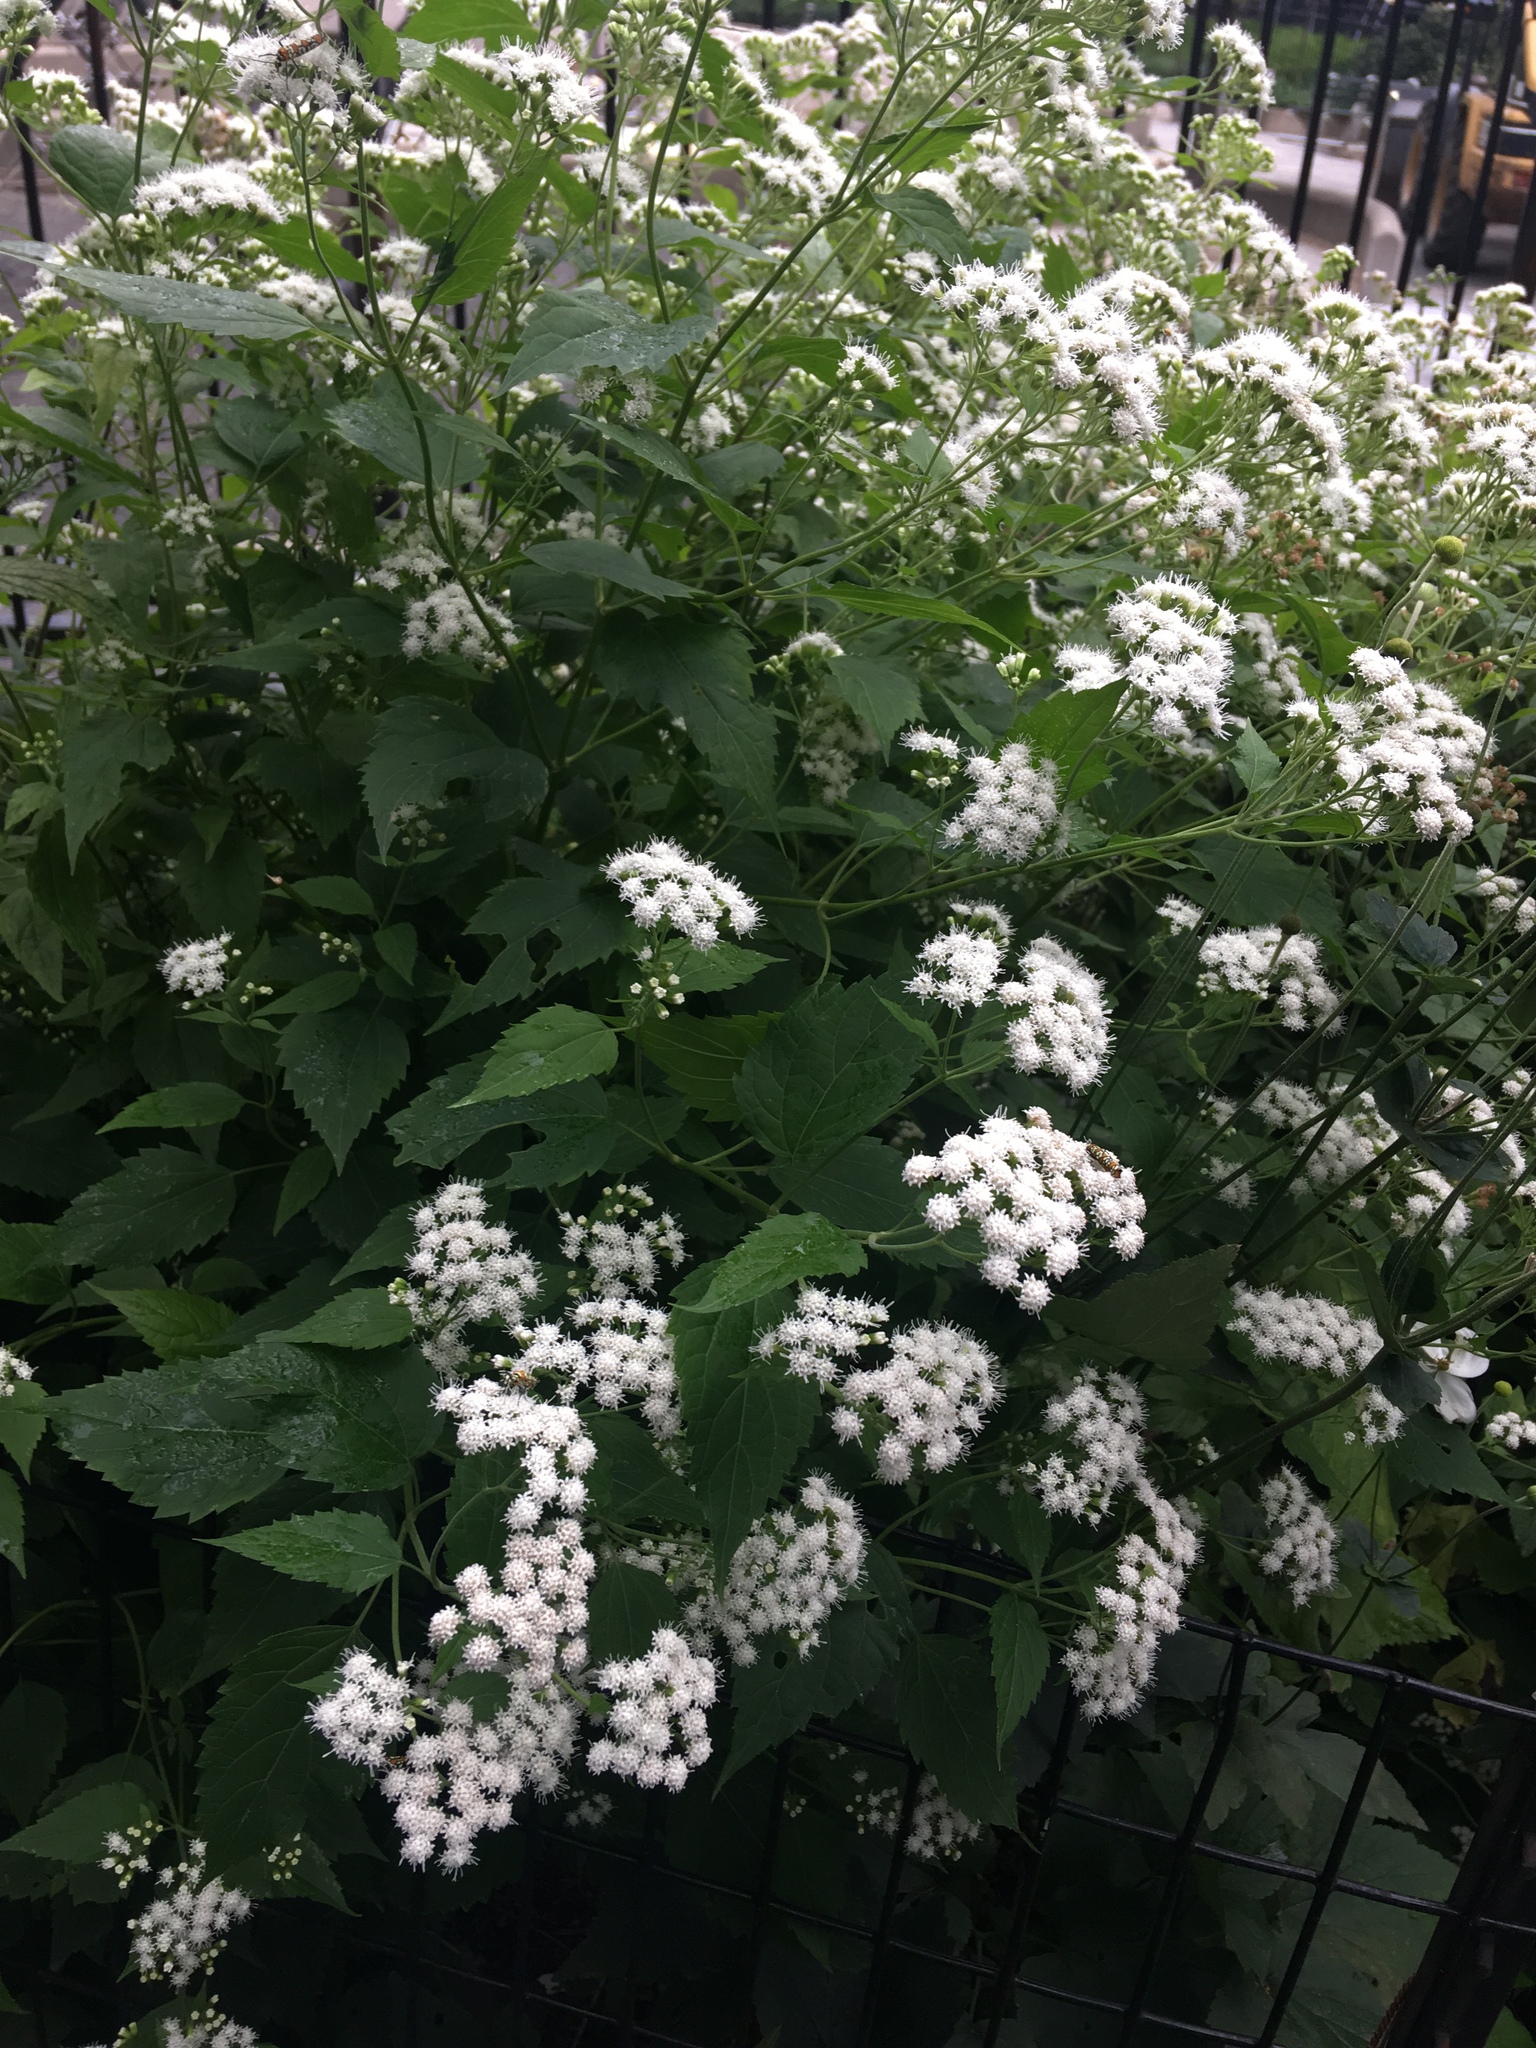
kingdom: Plantae
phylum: Tracheophyta
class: Magnoliopsida
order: Asterales
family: Asteraceae
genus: Ageratina
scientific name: Ageratina altissima
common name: White snakeroot
